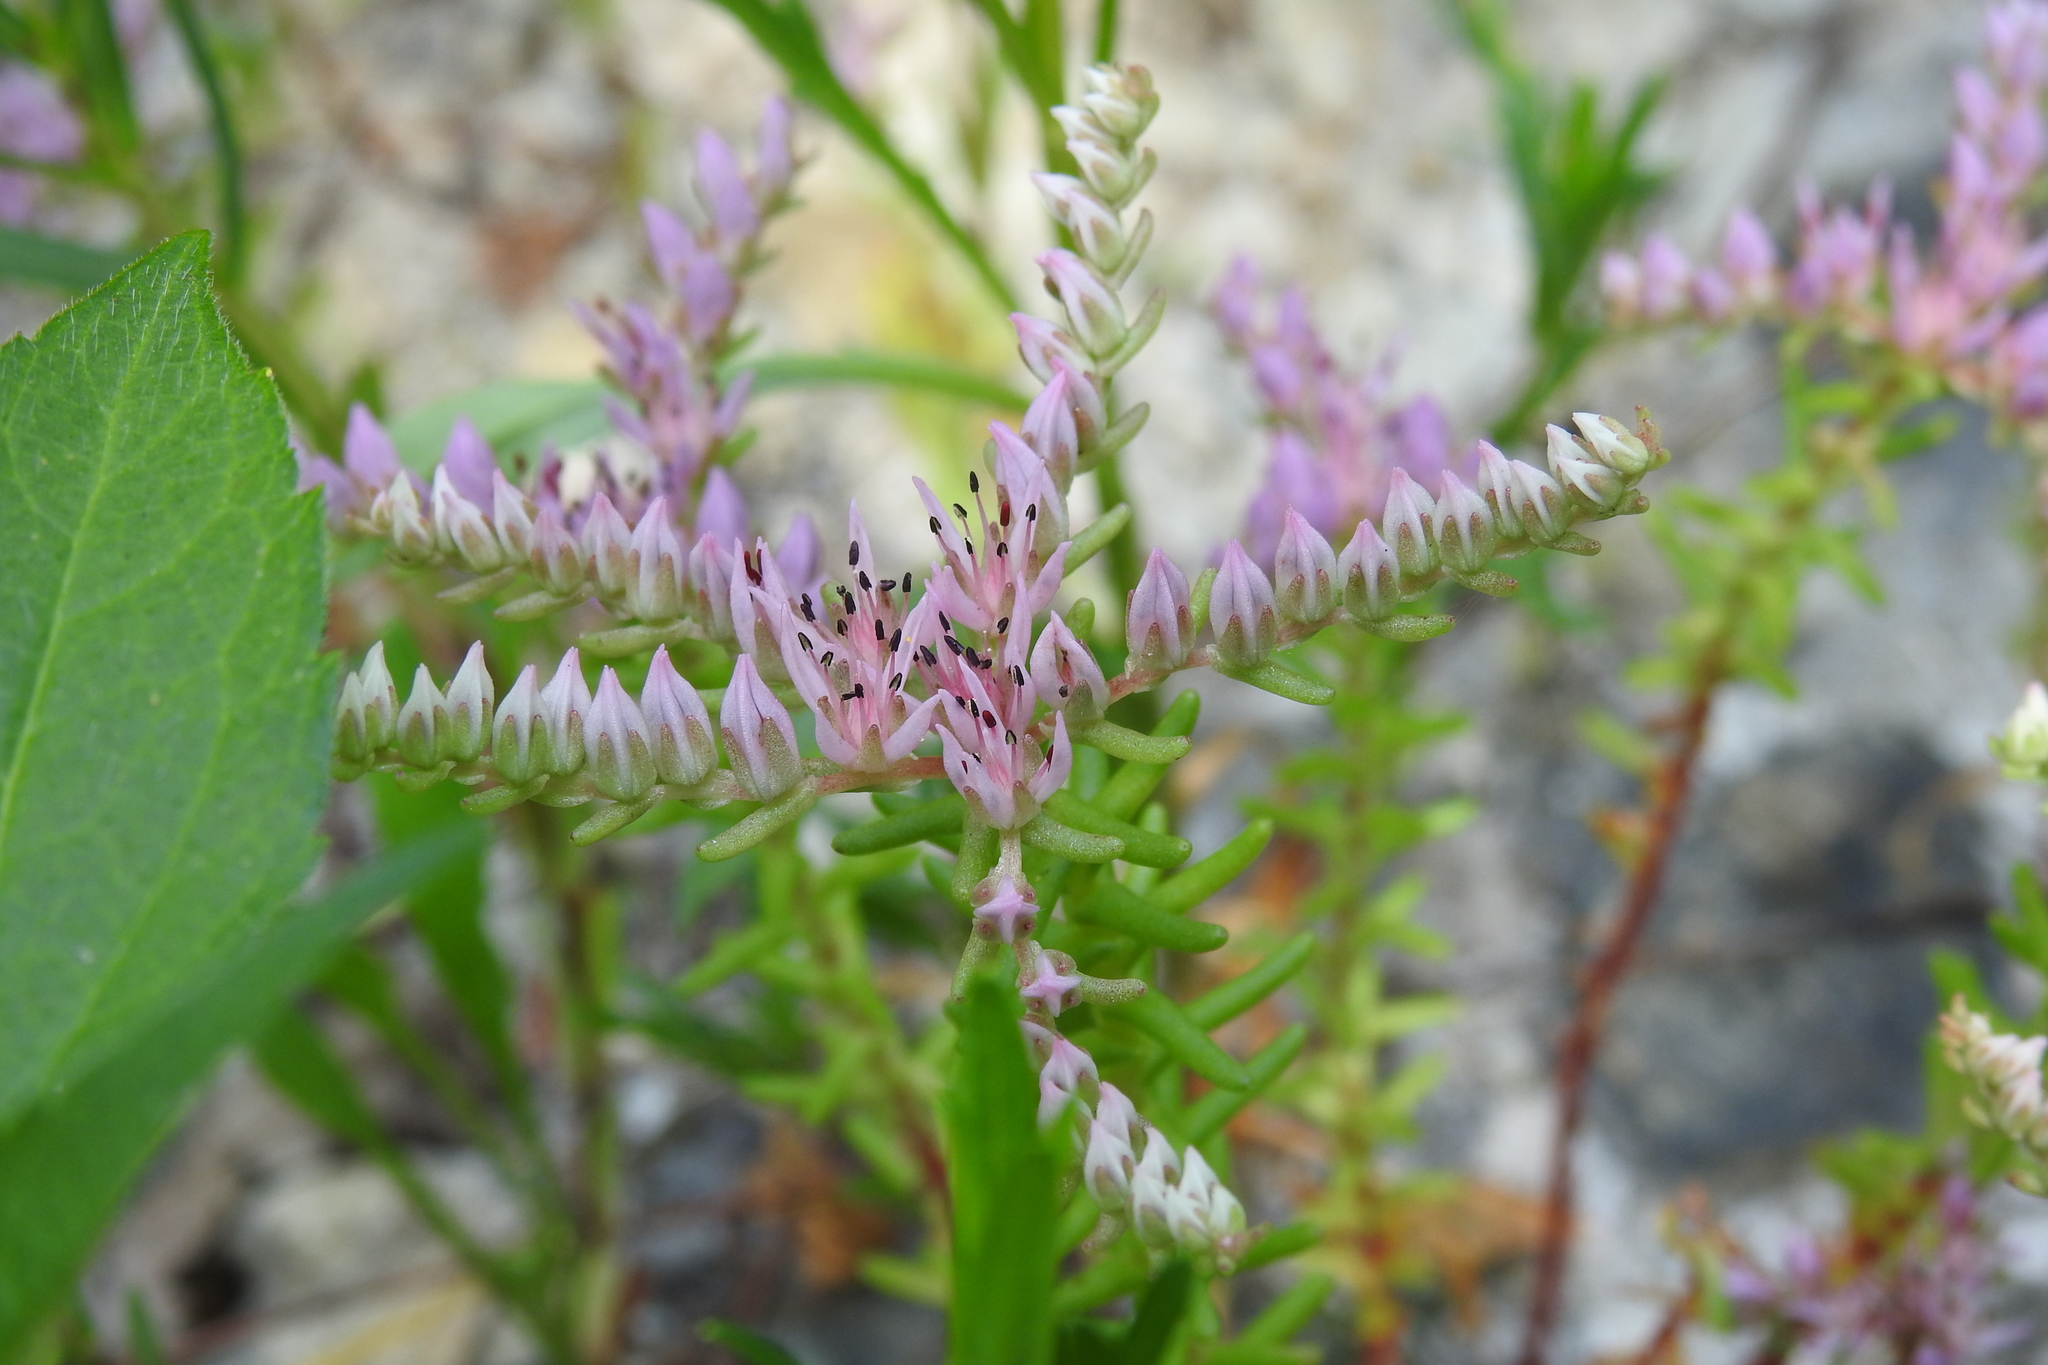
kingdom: Plantae
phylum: Tracheophyta
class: Magnoliopsida
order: Saxifragales
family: Crassulaceae
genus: Sedum
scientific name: Sedum pulchellum
